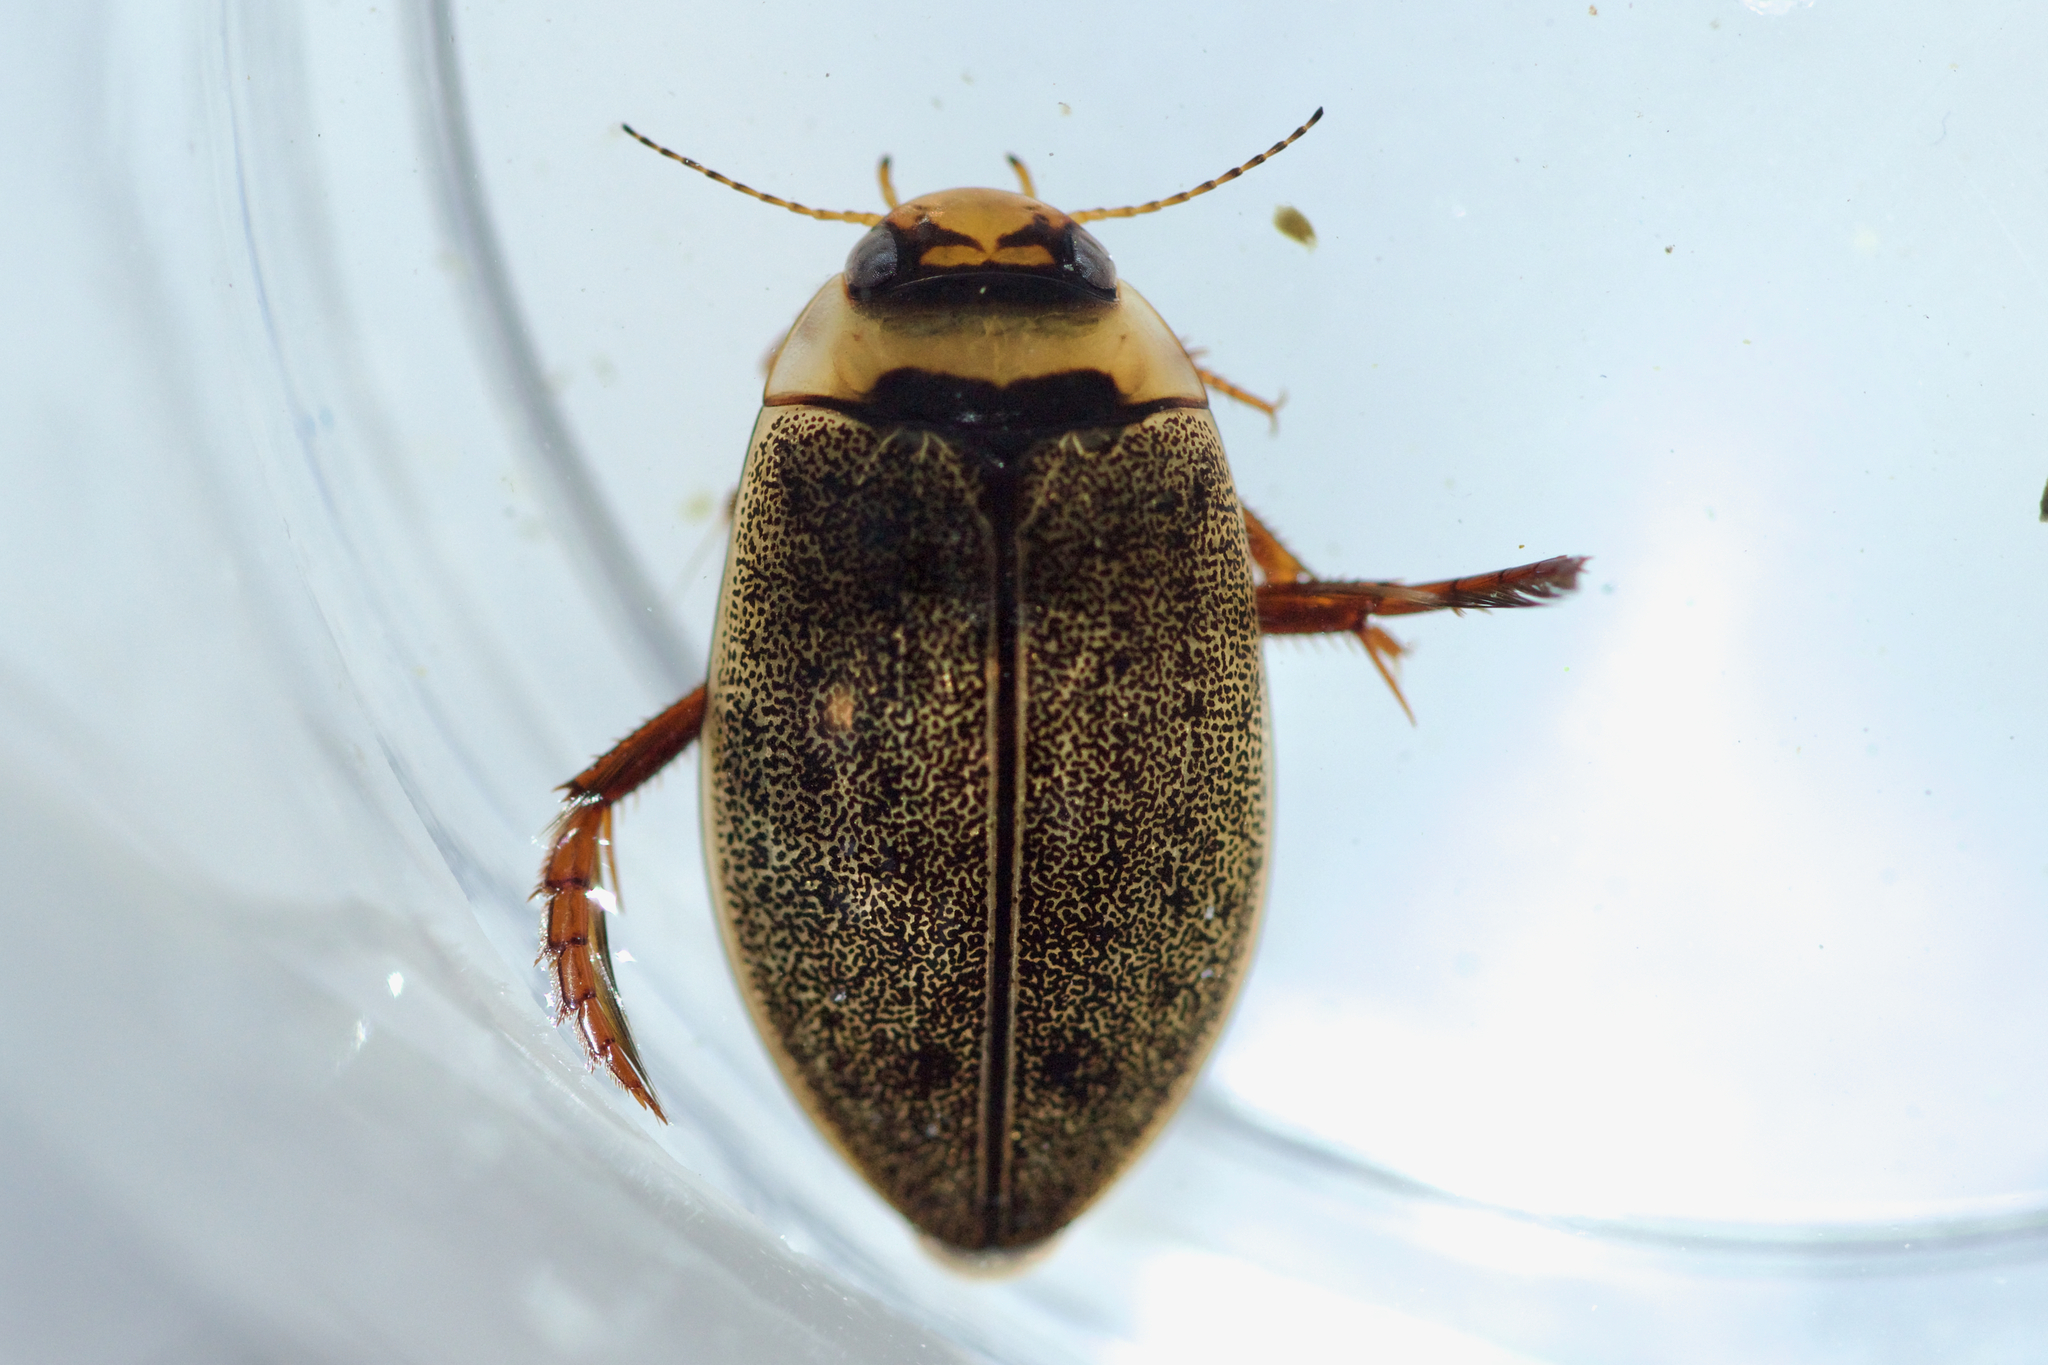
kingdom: Animalia
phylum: Arthropoda
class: Insecta
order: Coleoptera
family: Dytiscidae
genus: Rhantus
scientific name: Rhantus wallisi
